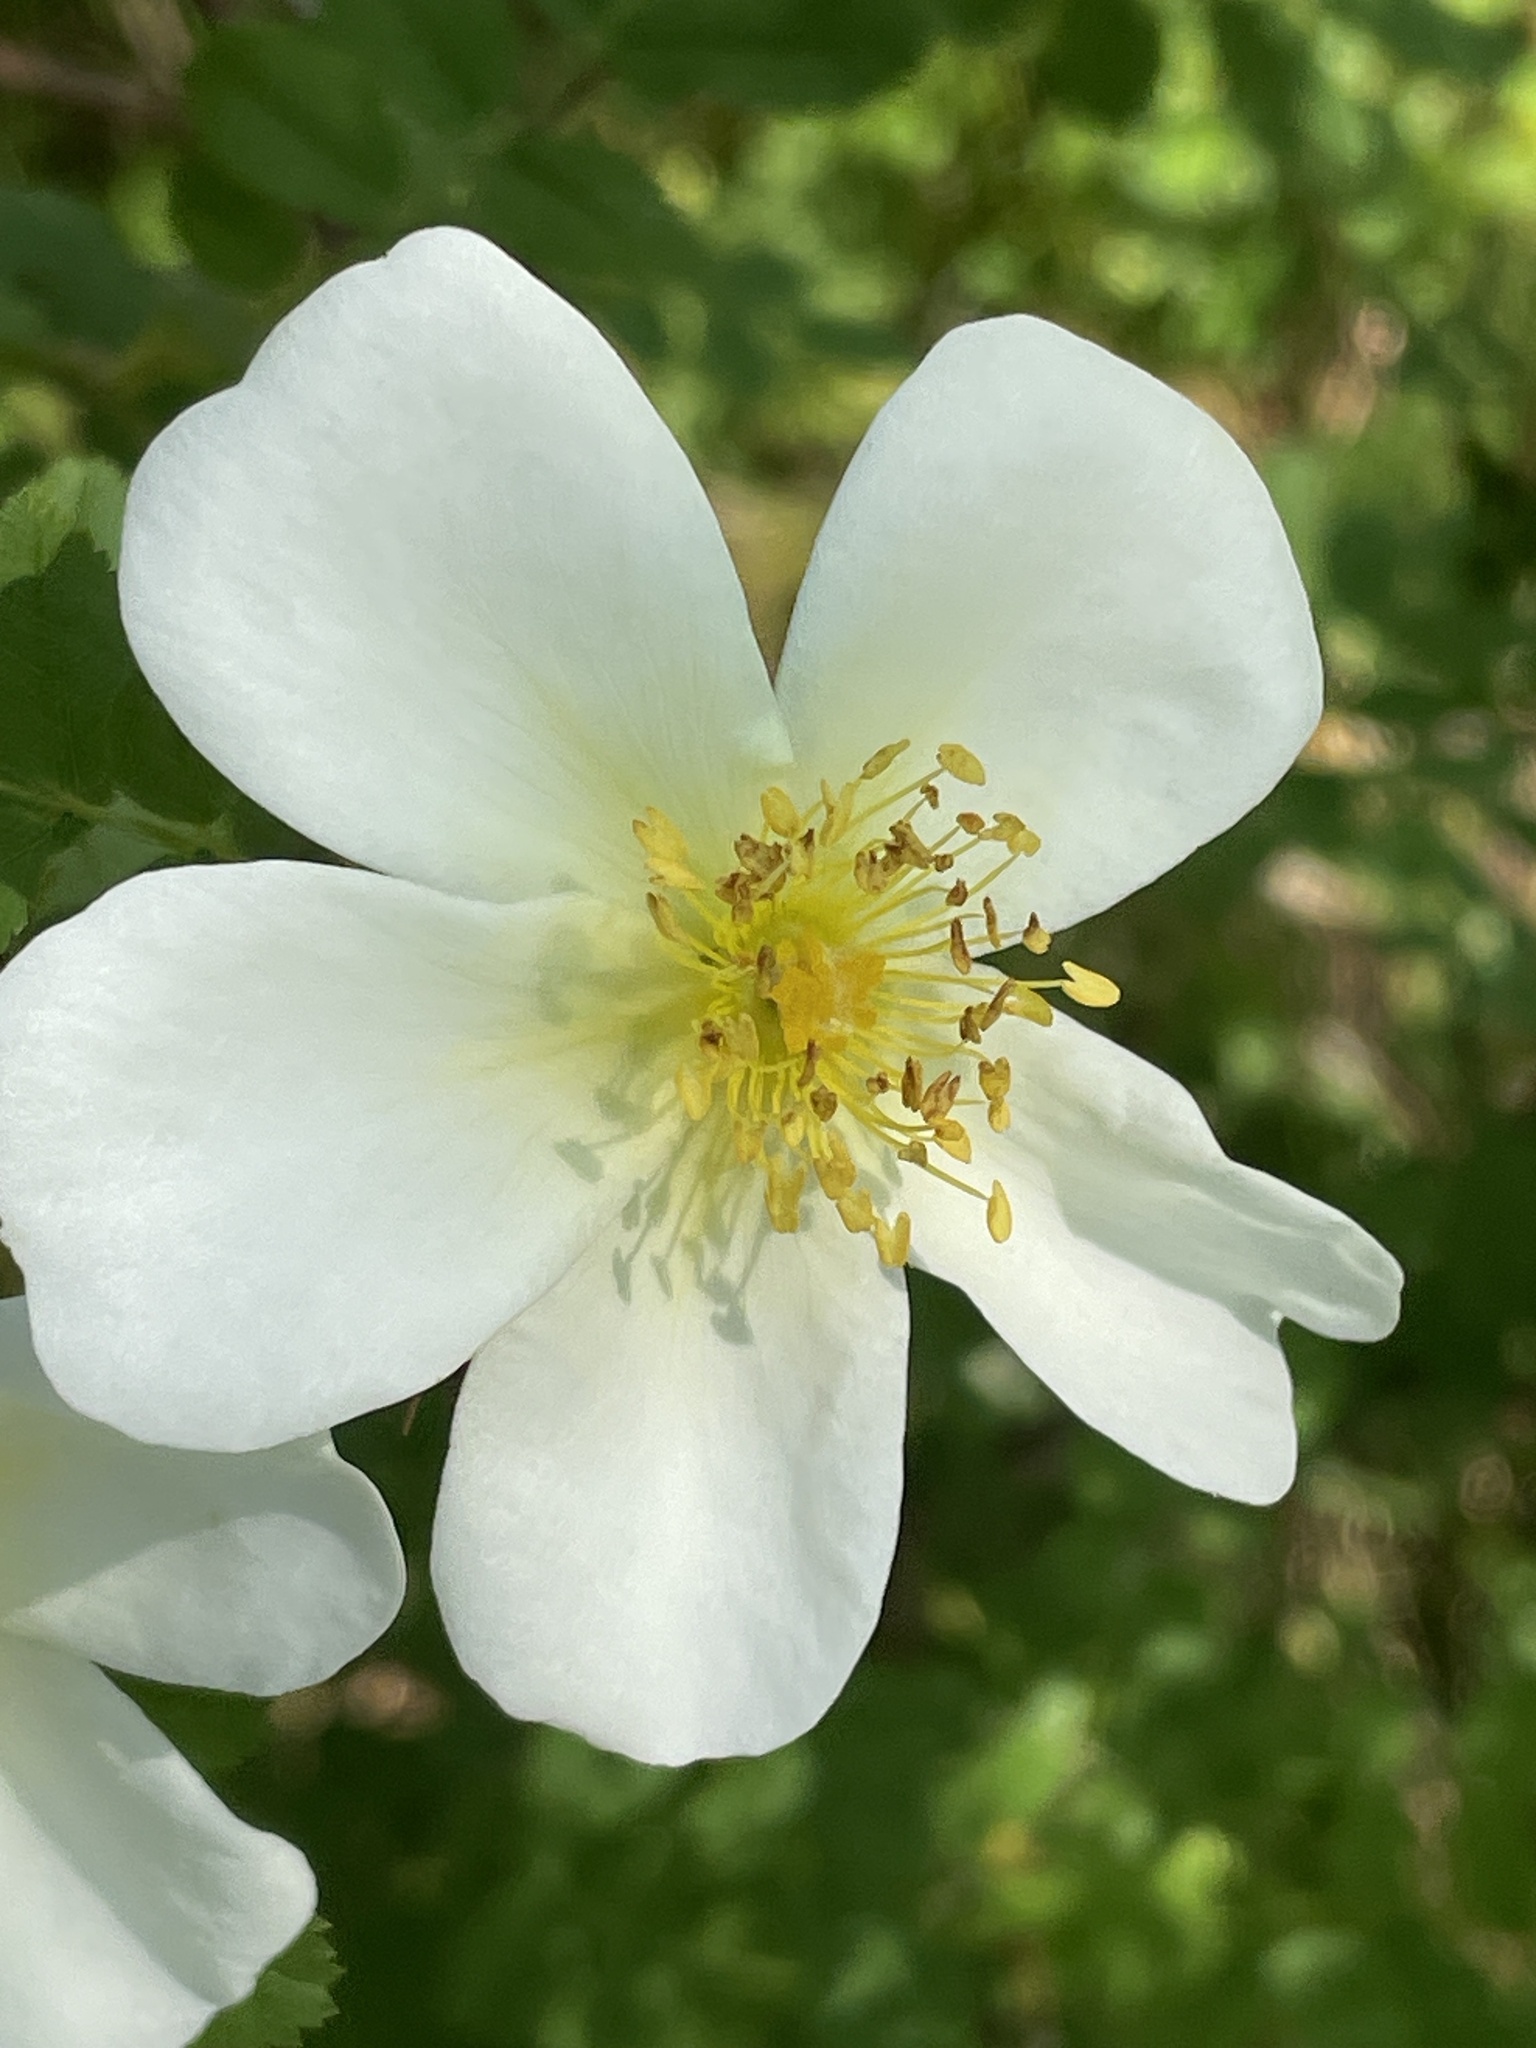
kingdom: Plantae
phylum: Tracheophyta
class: Magnoliopsida
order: Rosales
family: Rosaceae
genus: Rosa
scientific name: Rosa spinosissima
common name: Burnet rose
